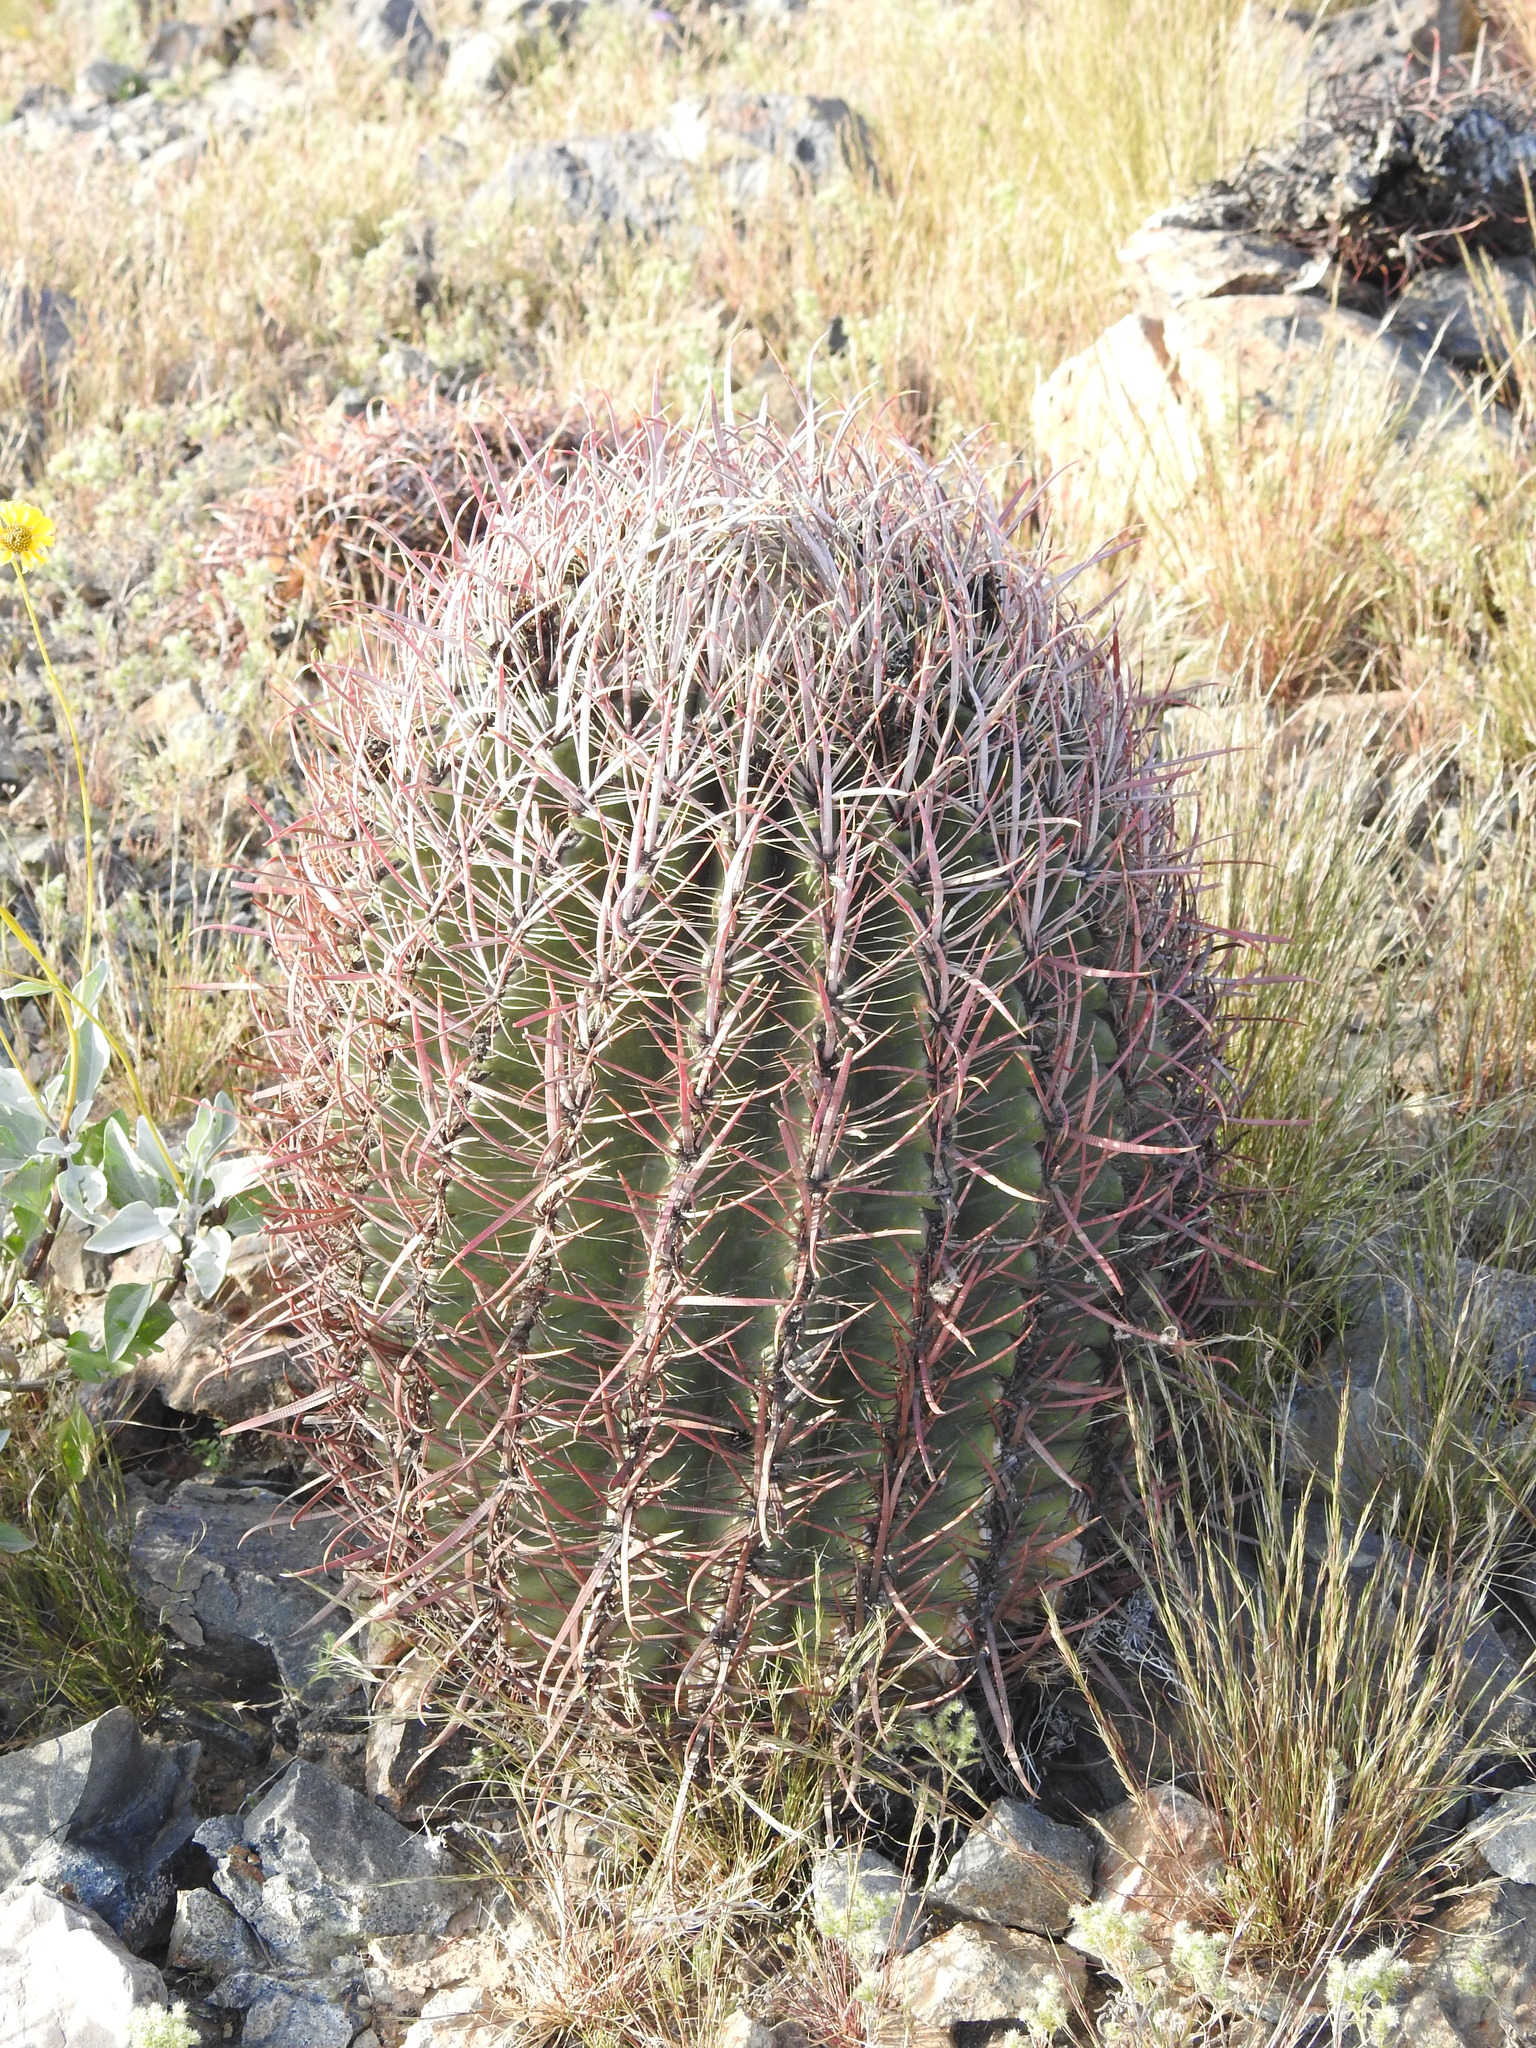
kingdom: Plantae
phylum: Tracheophyta
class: Magnoliopsida
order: Caryophyllales
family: Cactaceae
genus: Ferocactus
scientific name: Ferocactus cylindraceus
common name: California barrel cactus
